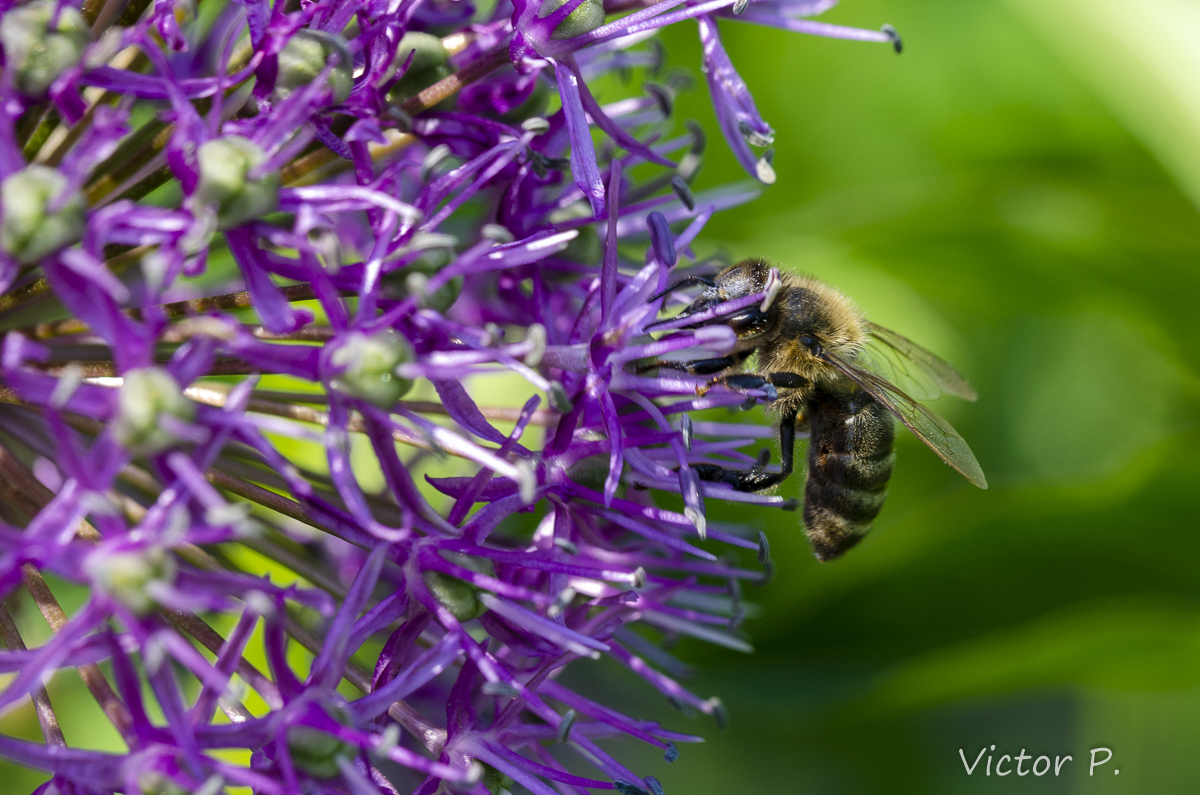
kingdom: Animalia
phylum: Arthropoda
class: Insecta
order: Hymenoptera
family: Apidae
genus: Apis
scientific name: Apis mellifera
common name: Honey bee
